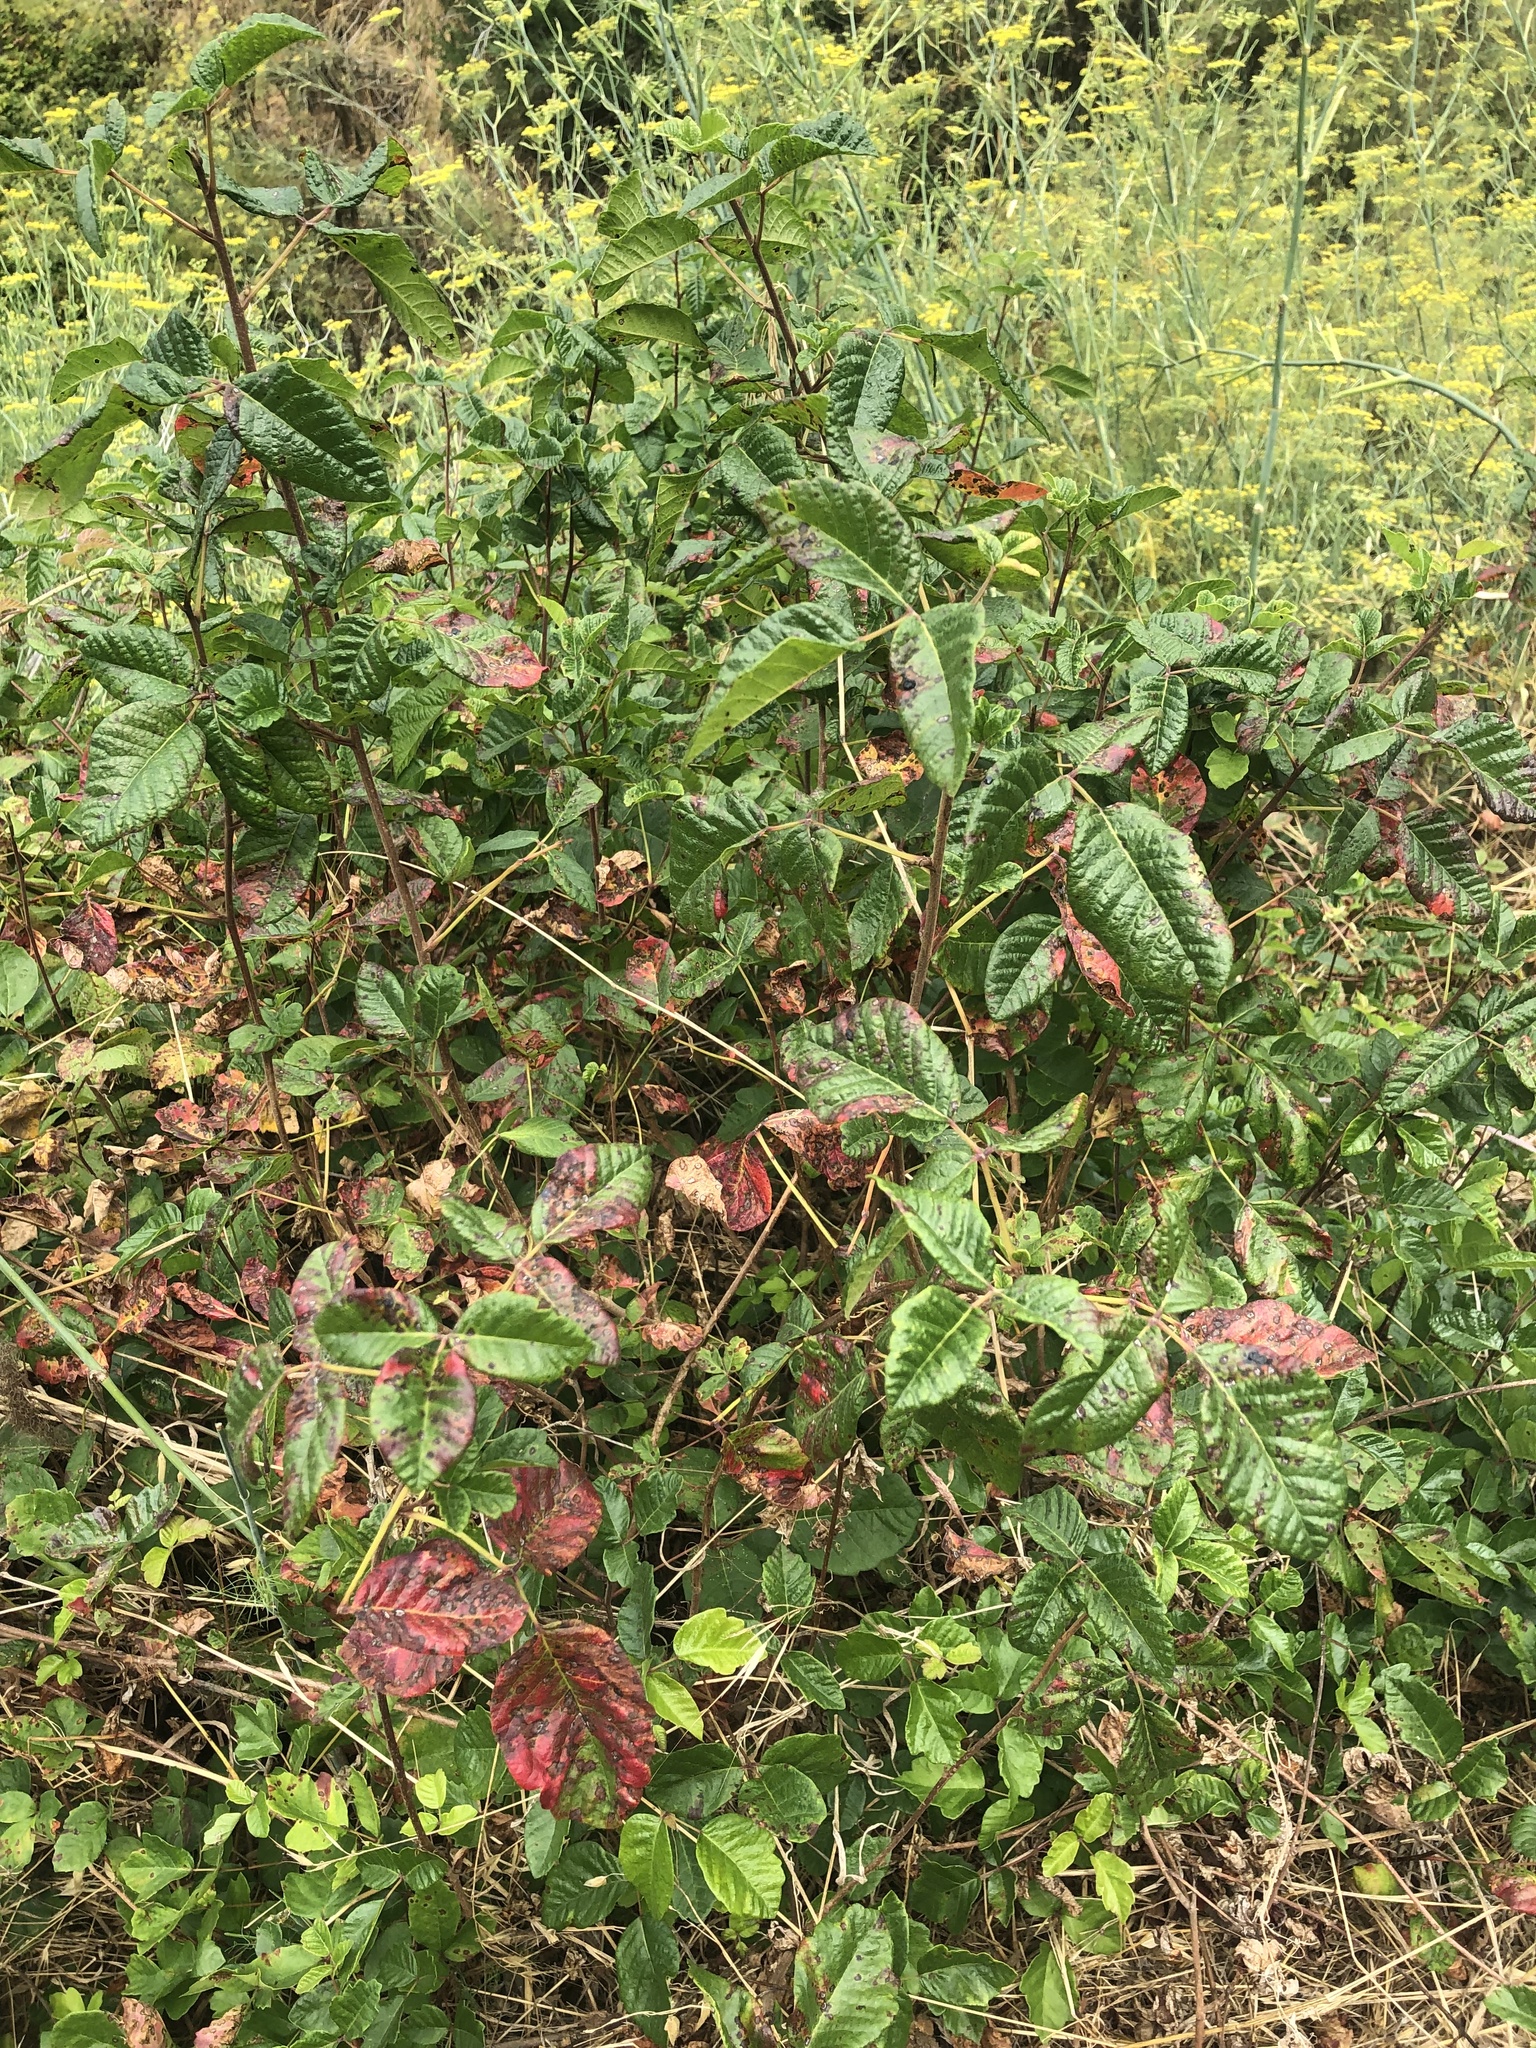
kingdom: Plantae
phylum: Tracheophyta
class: Magnoliopsida
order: Sapindales
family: Anacardiaceae
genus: Toxicodendron
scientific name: Toxicodendron diversilobum
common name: Pacific poison-oak
